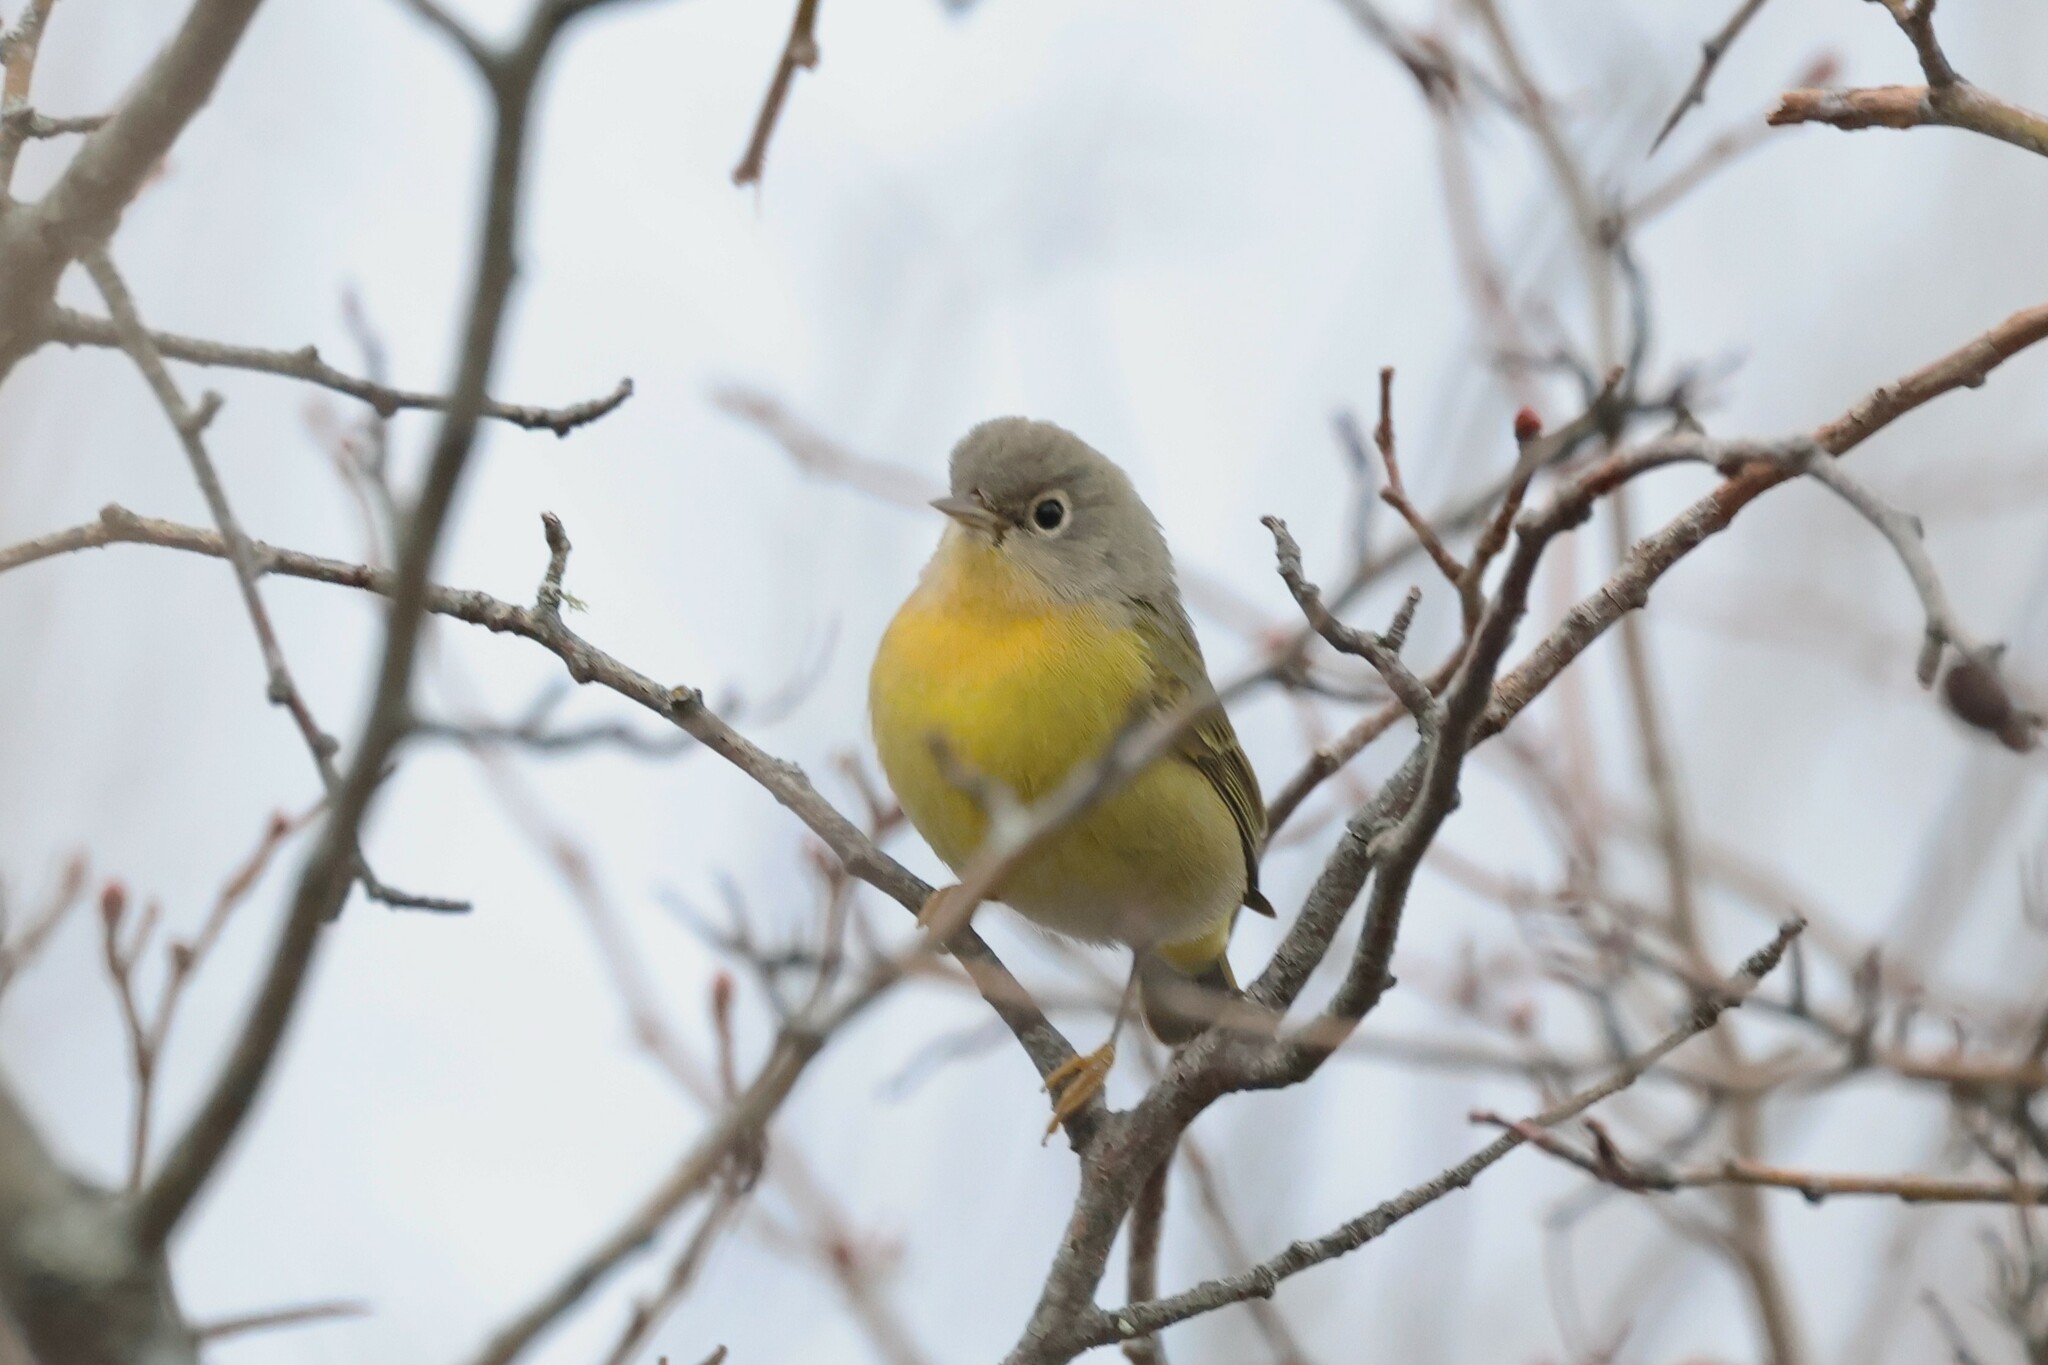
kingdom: Animalia
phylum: Chordata
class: Aves
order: Passeriformes
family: Parulidae
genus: Leiothlypis
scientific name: Leiothlypis ruficapilla
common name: Nashville warbler
